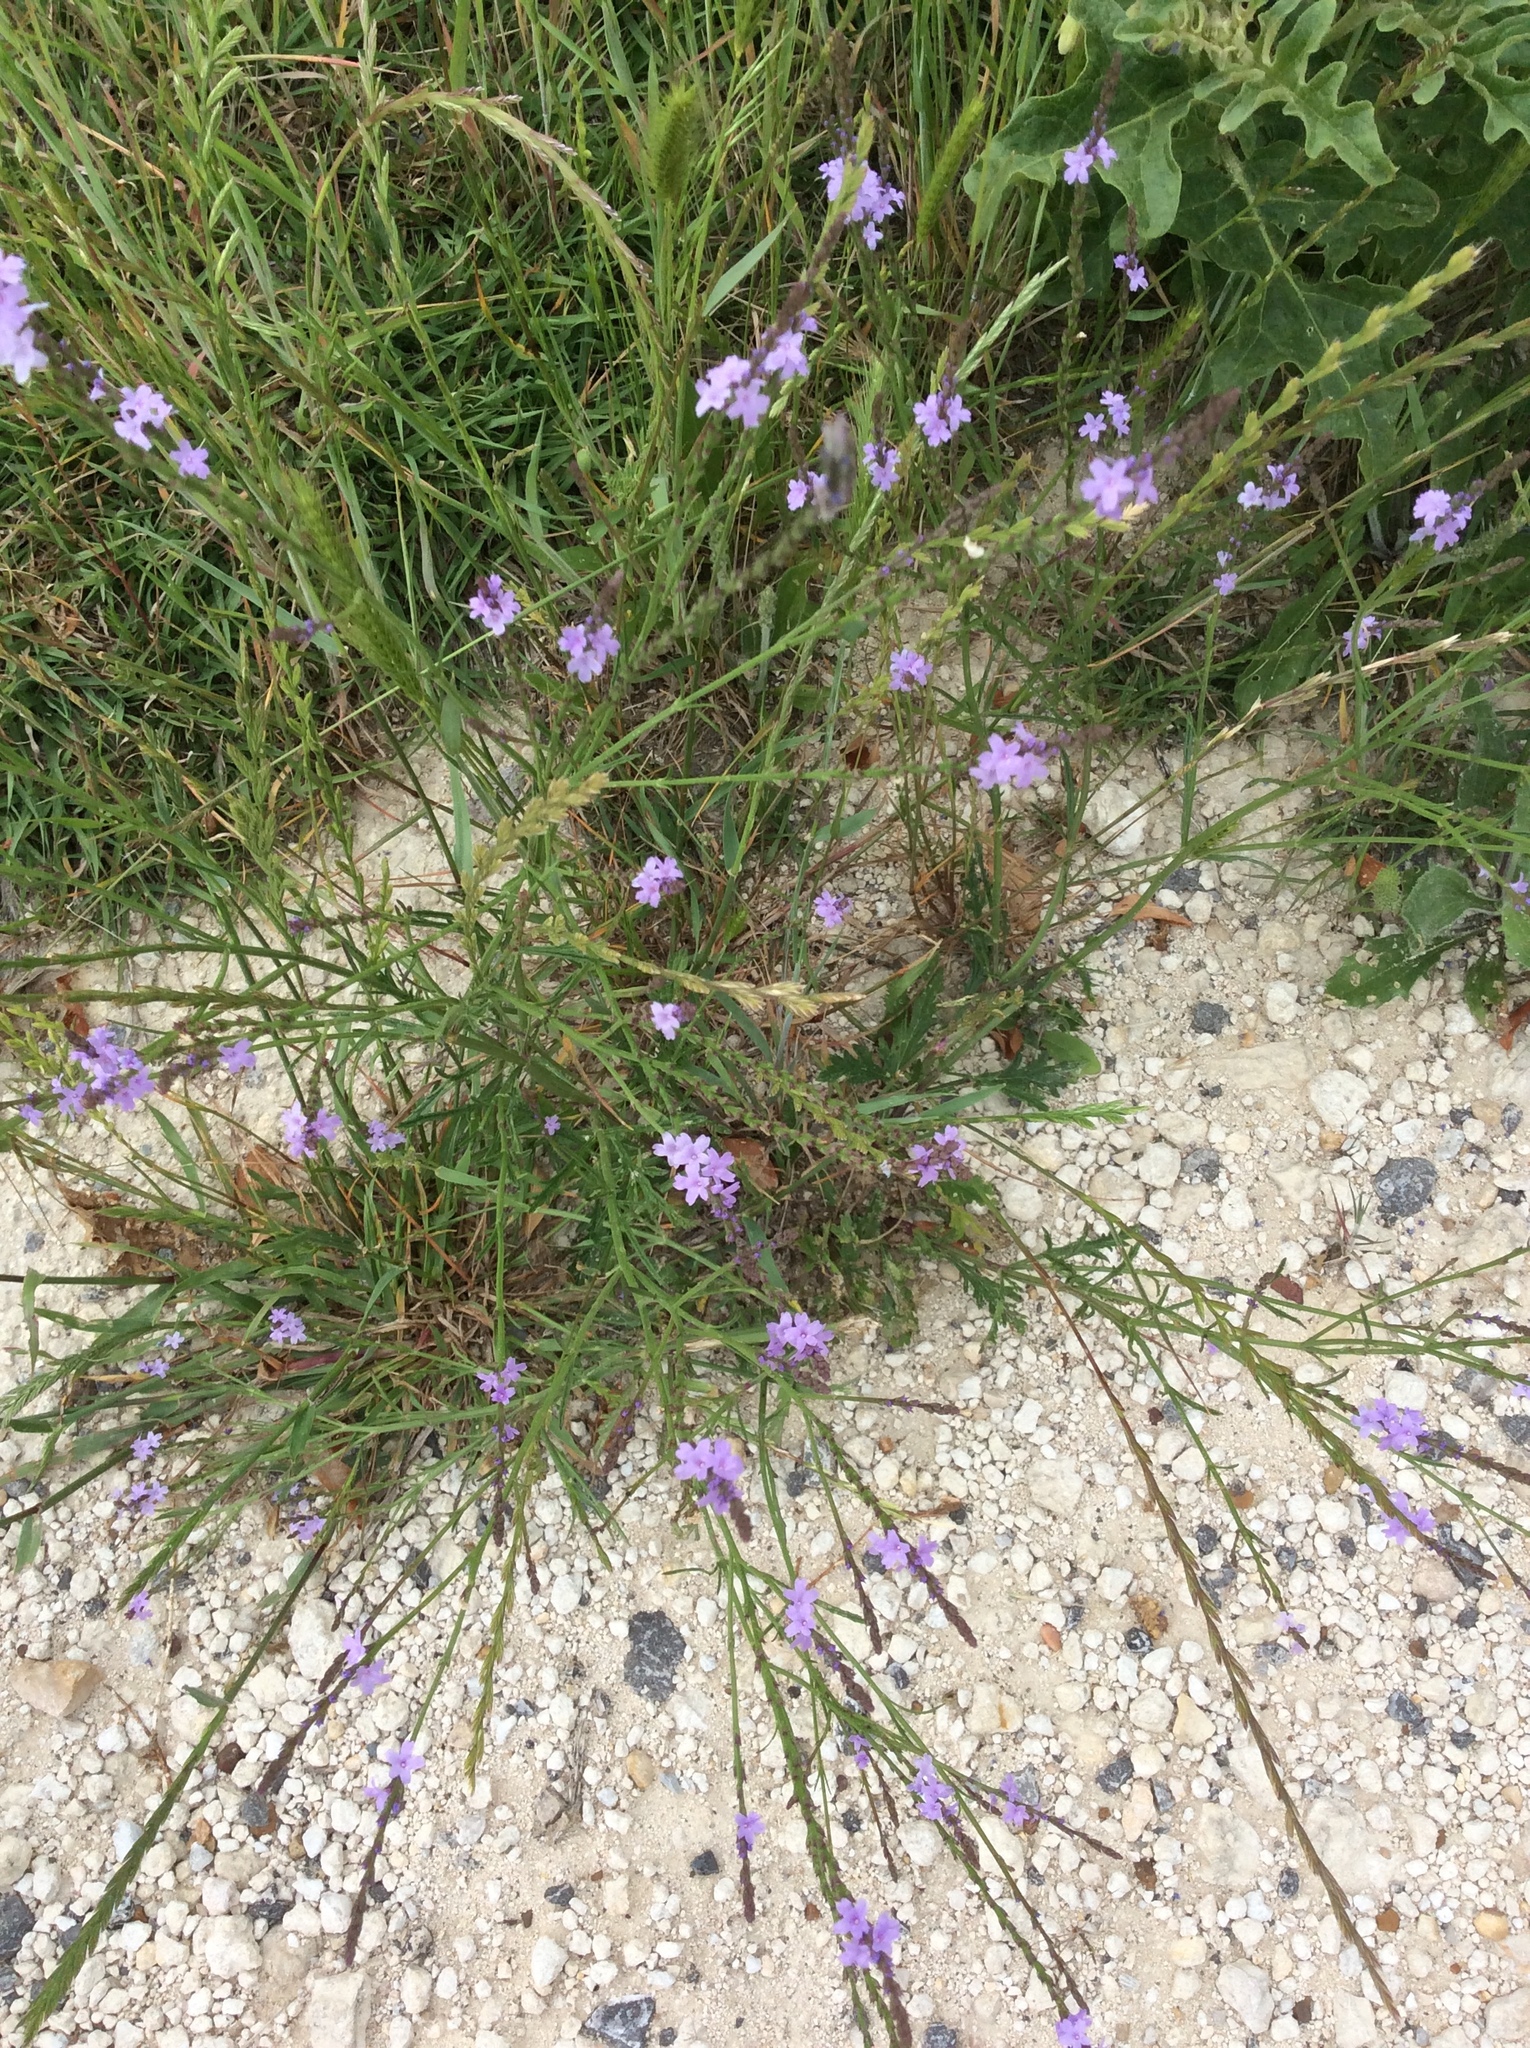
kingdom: Plantae
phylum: Tracheophyta
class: Magnoliopsida
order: Lamiales
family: Verbenaceae
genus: Verbena
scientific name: Verbena halei
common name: Texas vervain
